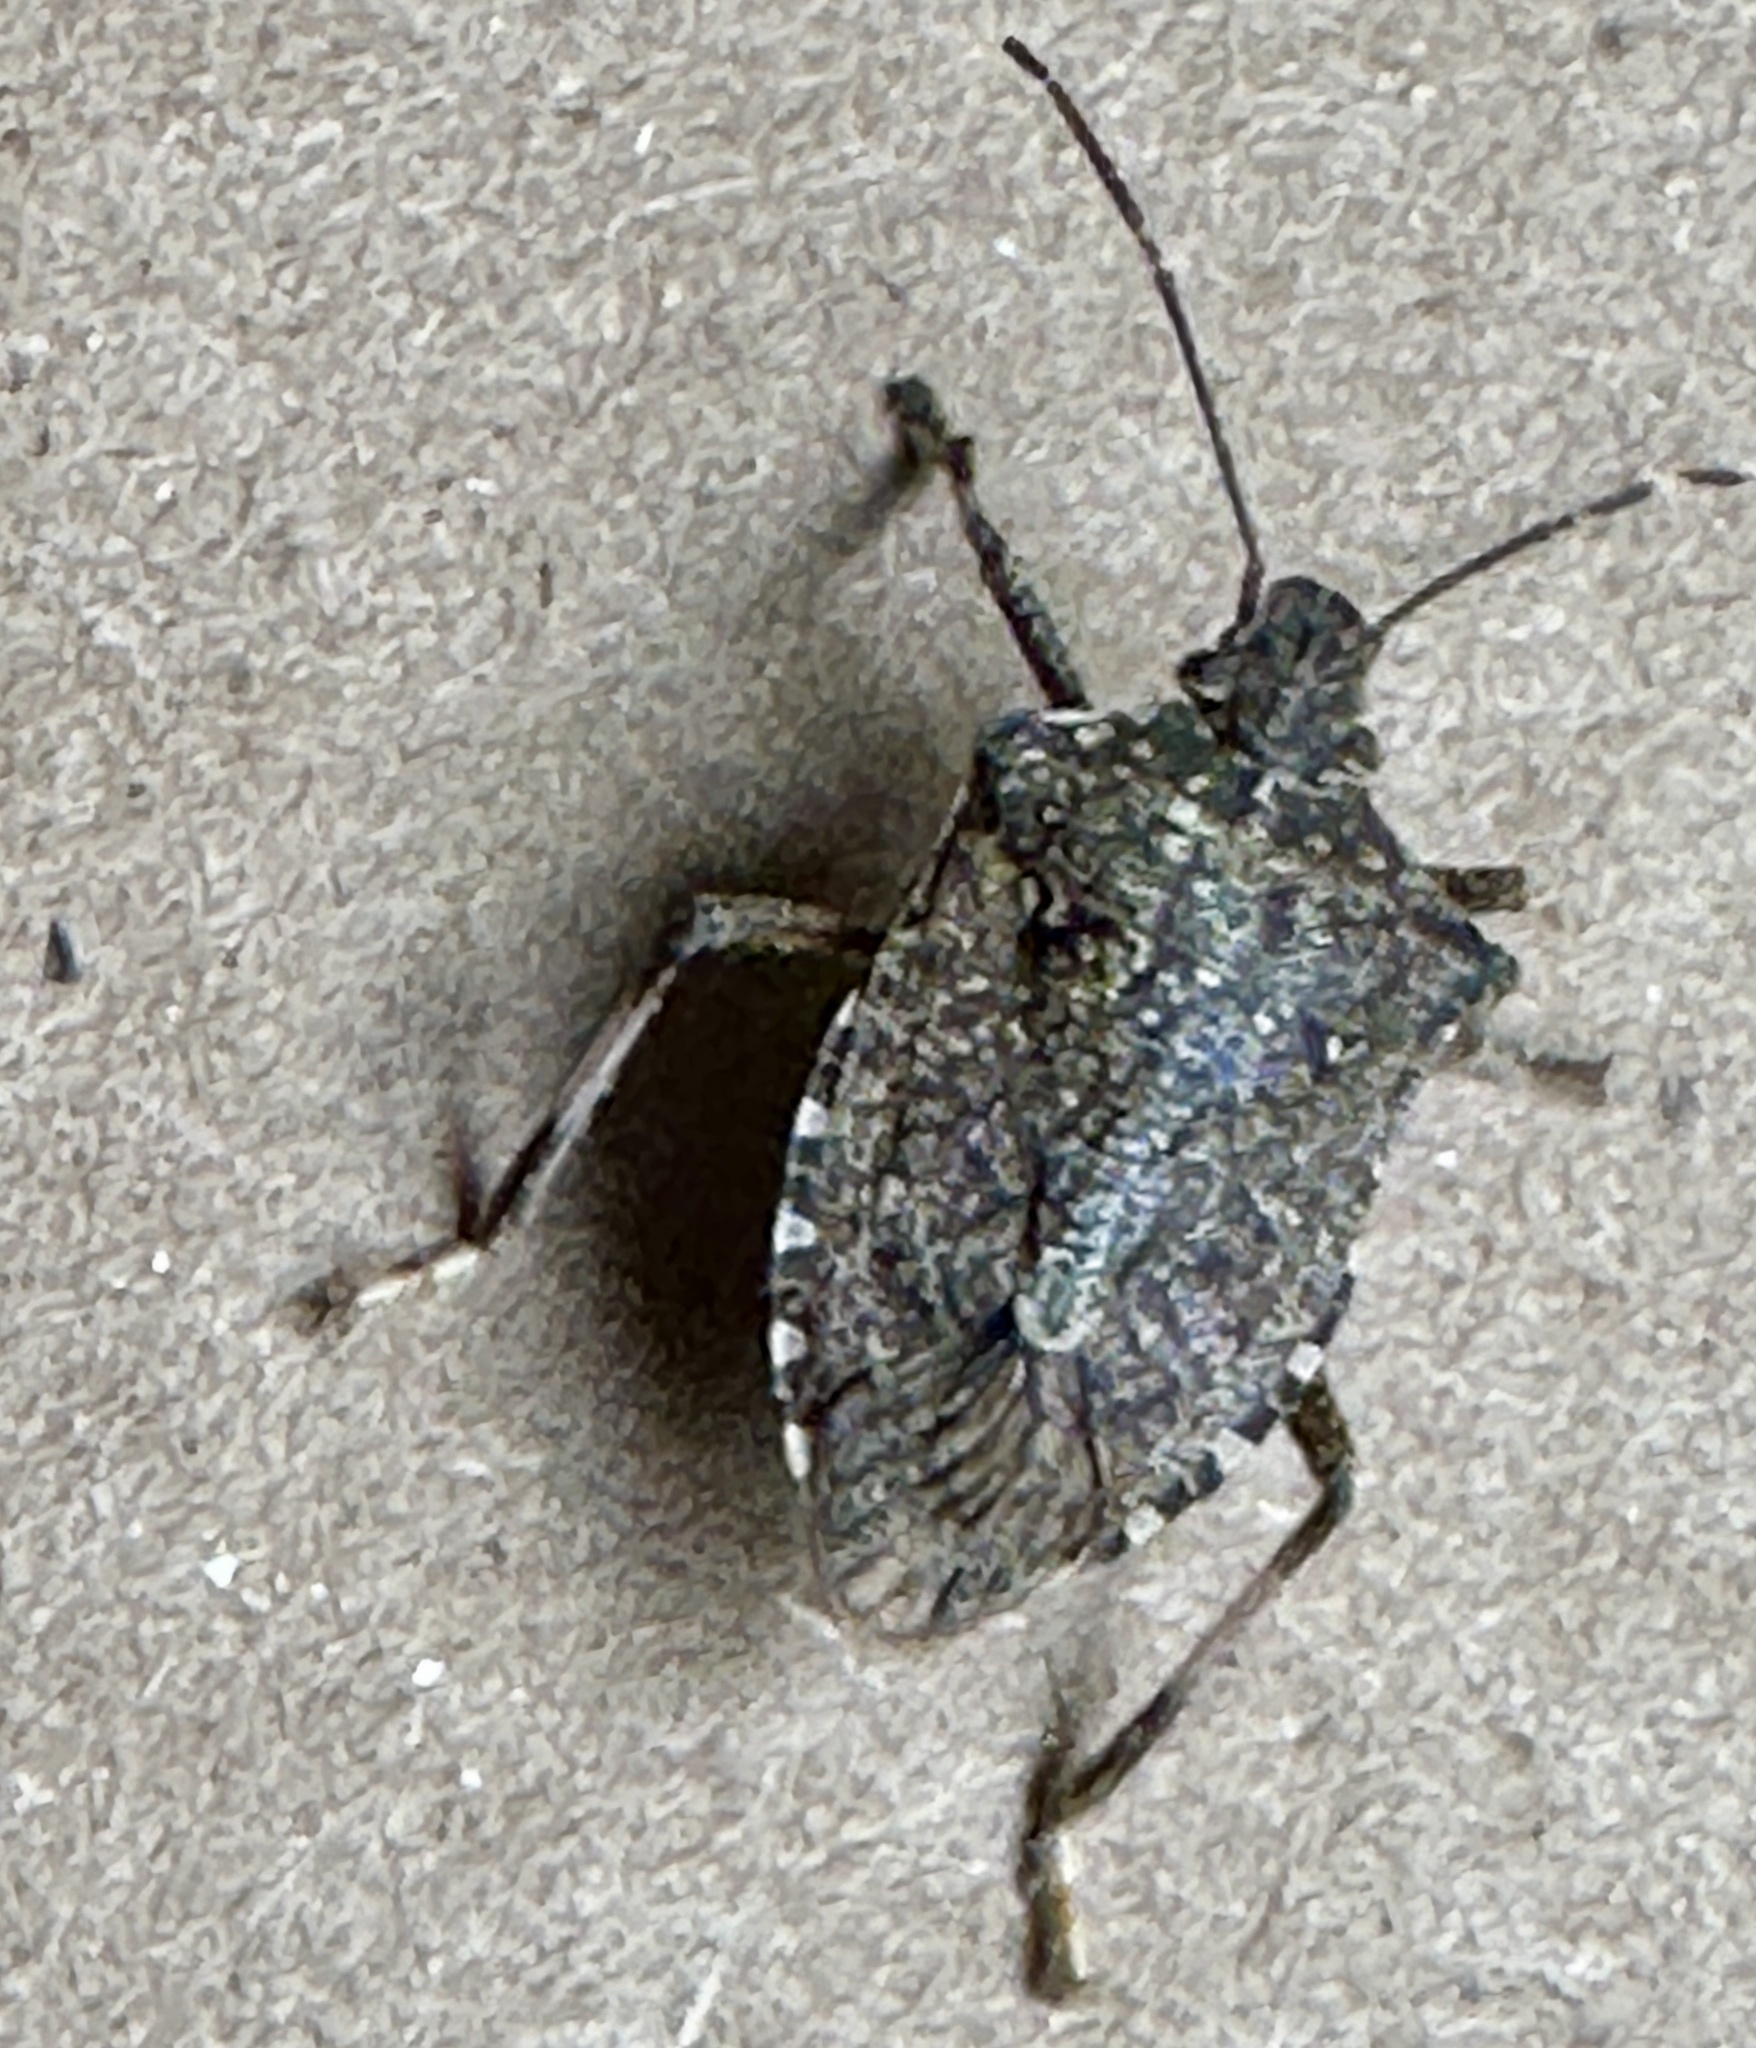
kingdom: Animalia
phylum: Arthropoda
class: Insecta
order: Hemiptera
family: Pentatomidae
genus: Halyomorpha
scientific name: Halyomorpha halys
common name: Brown marmorated stink bug
